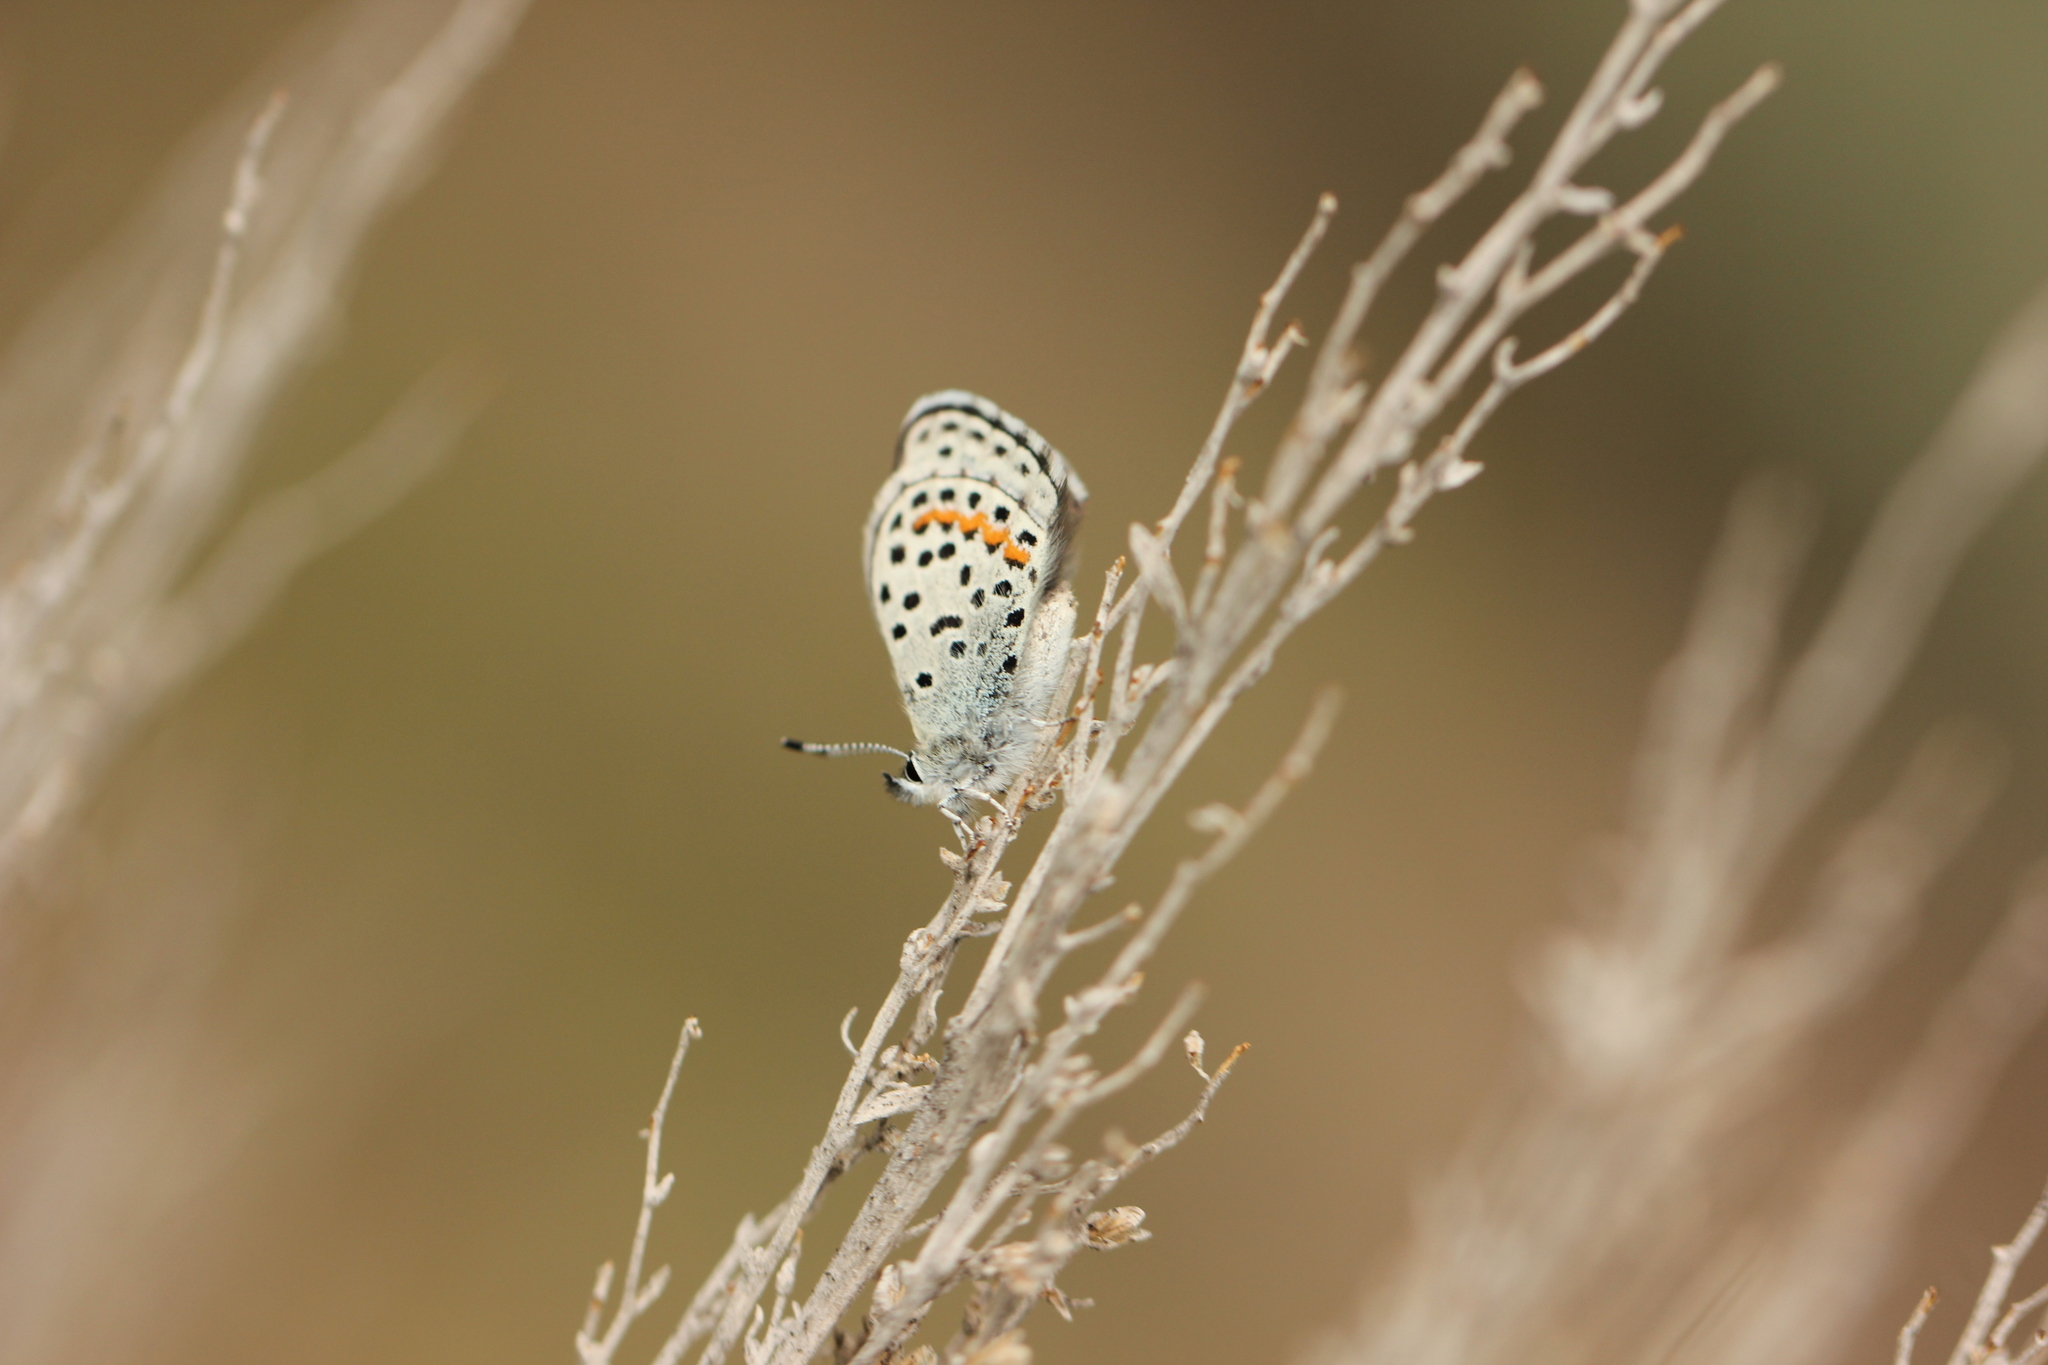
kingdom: Animalia
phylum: Arthropoda
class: Insecta
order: Lepidoptera
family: Lycaenidae
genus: Icaricia
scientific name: Icaricia lupini
